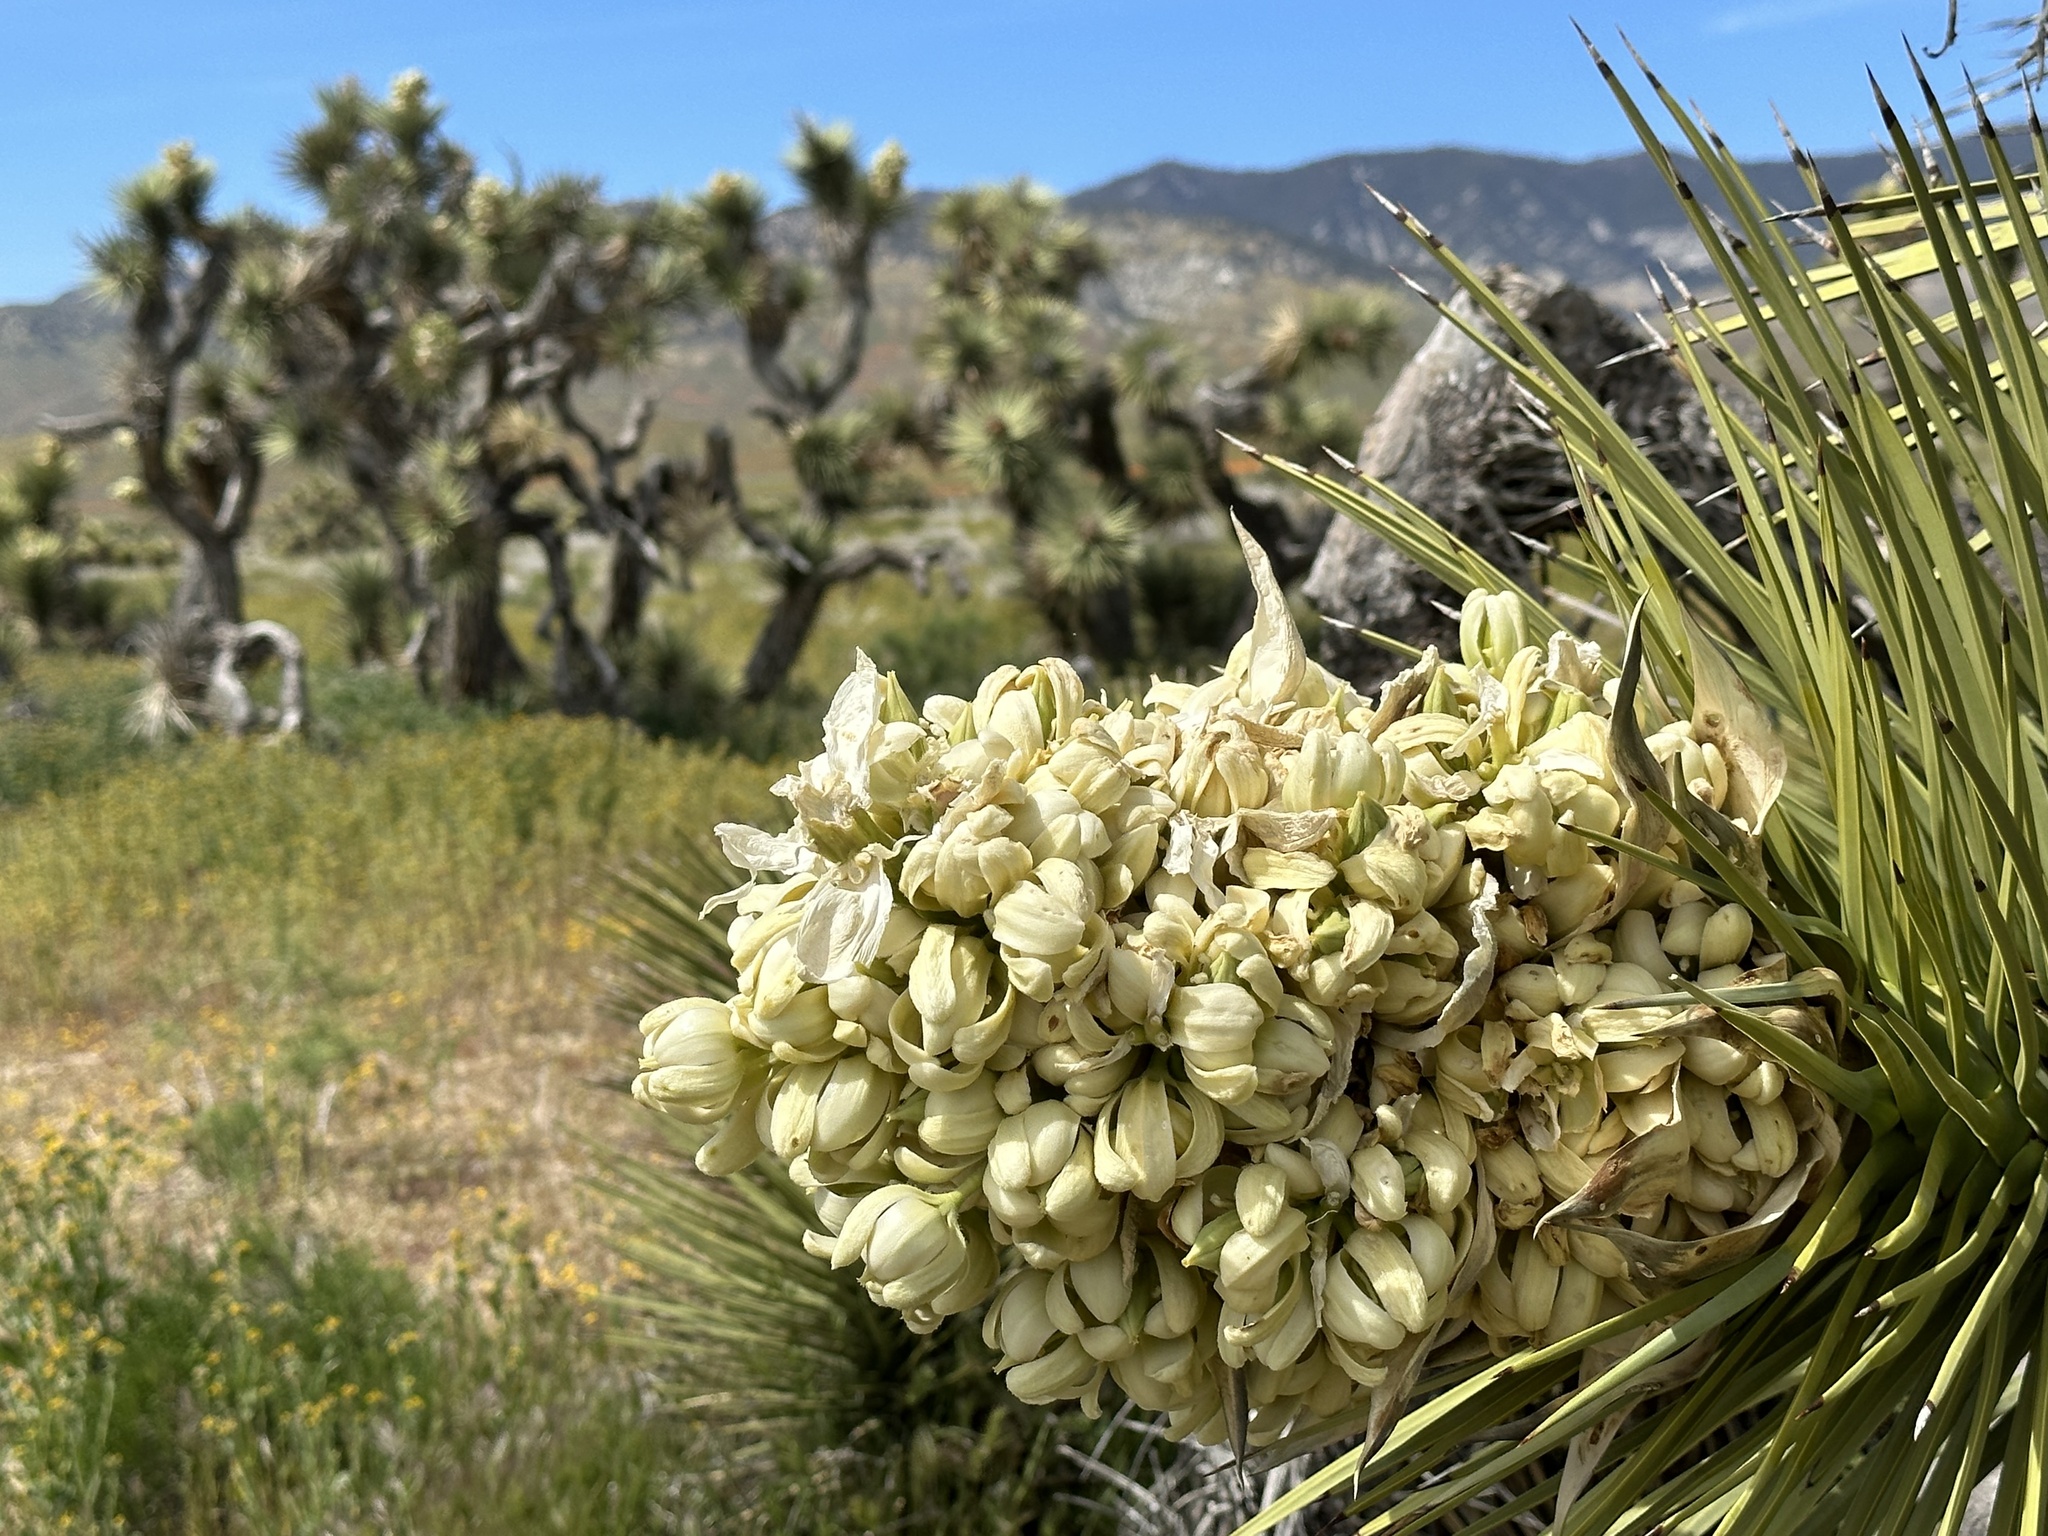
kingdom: Plantae
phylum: Tracheophyta
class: Liliopsida
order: Asparagales
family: Asparagaceae
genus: Yucca
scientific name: Yucca brevifolia
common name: Joshua tree
